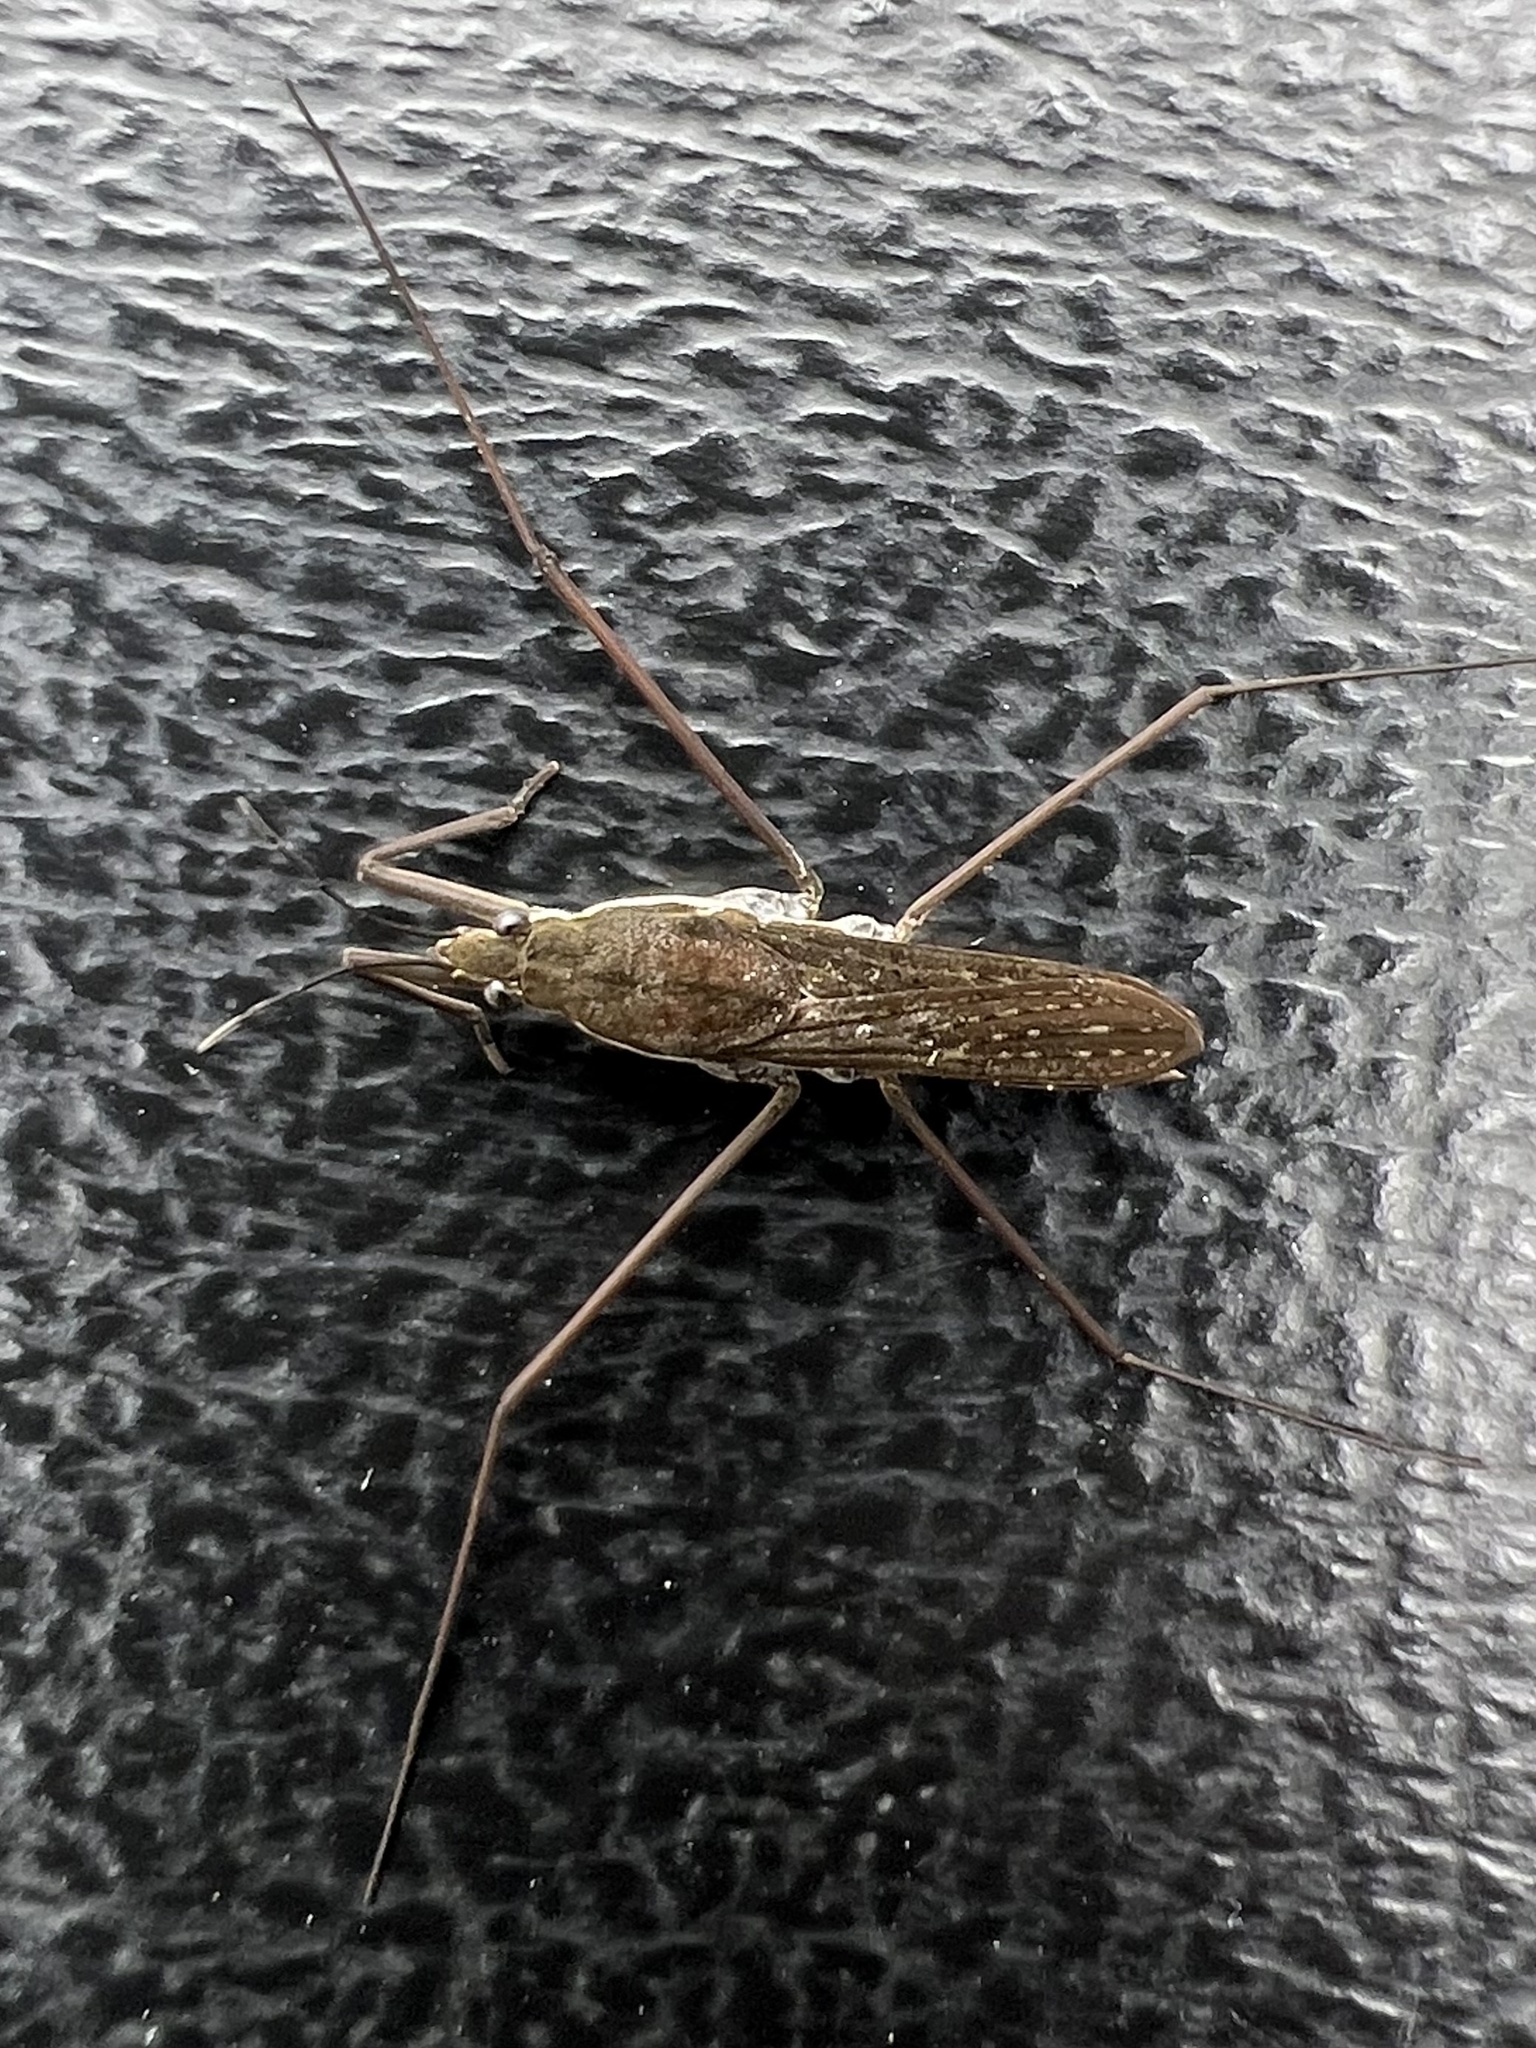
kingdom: Animalia
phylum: Arthropoda
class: Insecta
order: Hemiptera
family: Gerridae
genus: Aquarius
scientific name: Aquarius remigis
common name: Common water strider
